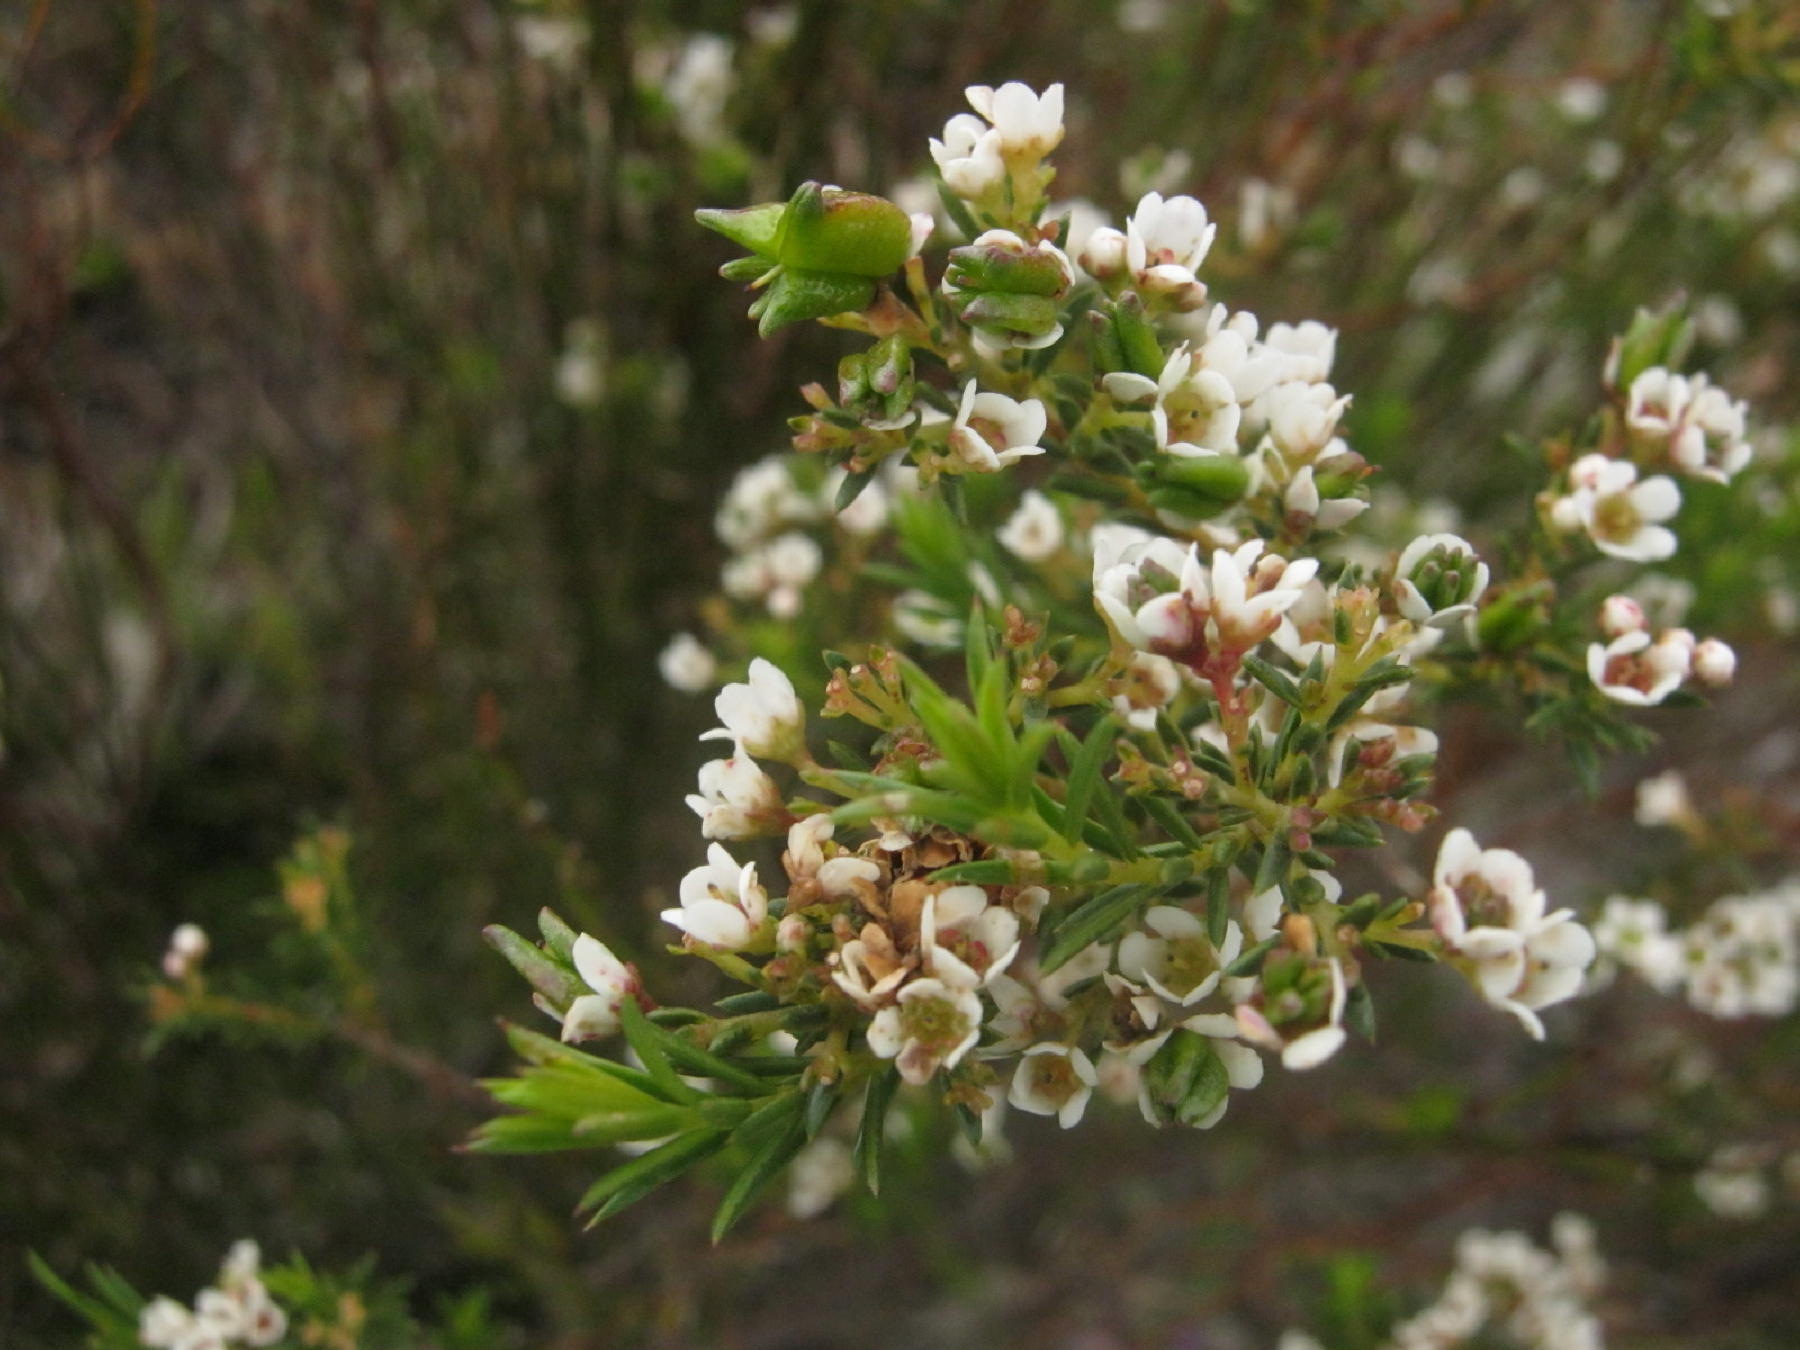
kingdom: Plantae
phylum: Tracheophyta
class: Magnoliopsida
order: Sapindales
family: Rutaceae
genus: Diosma
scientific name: Diosma hirsuta
